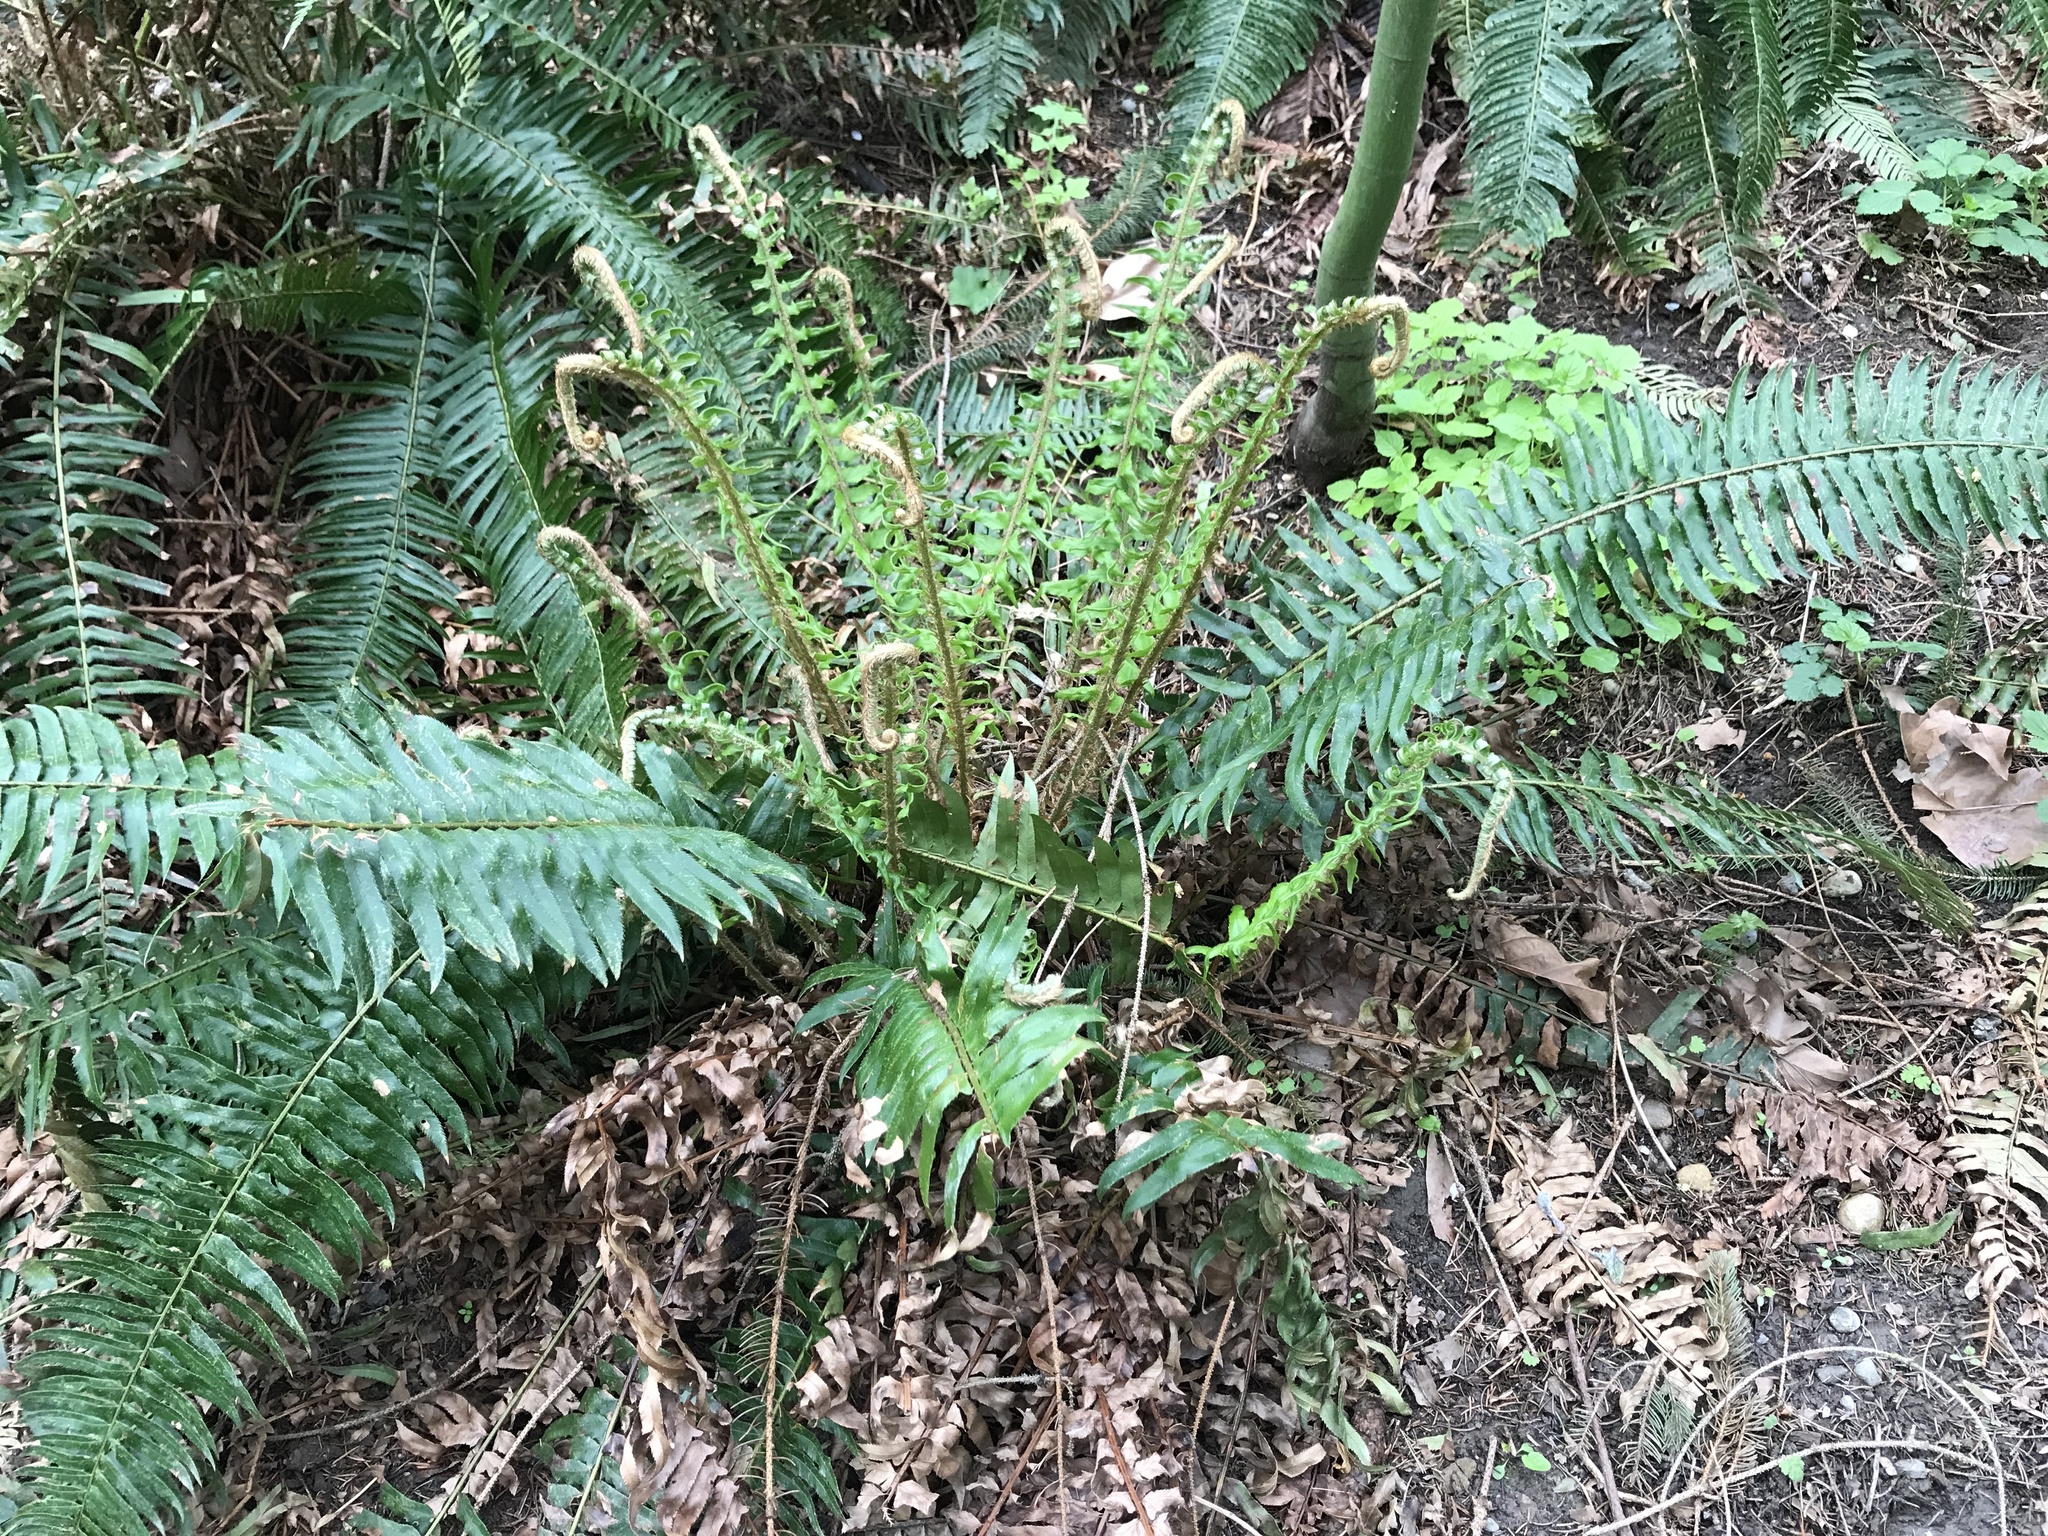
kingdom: Plantae
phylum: Tracheophyta
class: Polypodiopsida
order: Polypodiales
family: Dryopteridaceae
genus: Polystichum
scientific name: Polystichum munitum
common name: Western sword-fern
